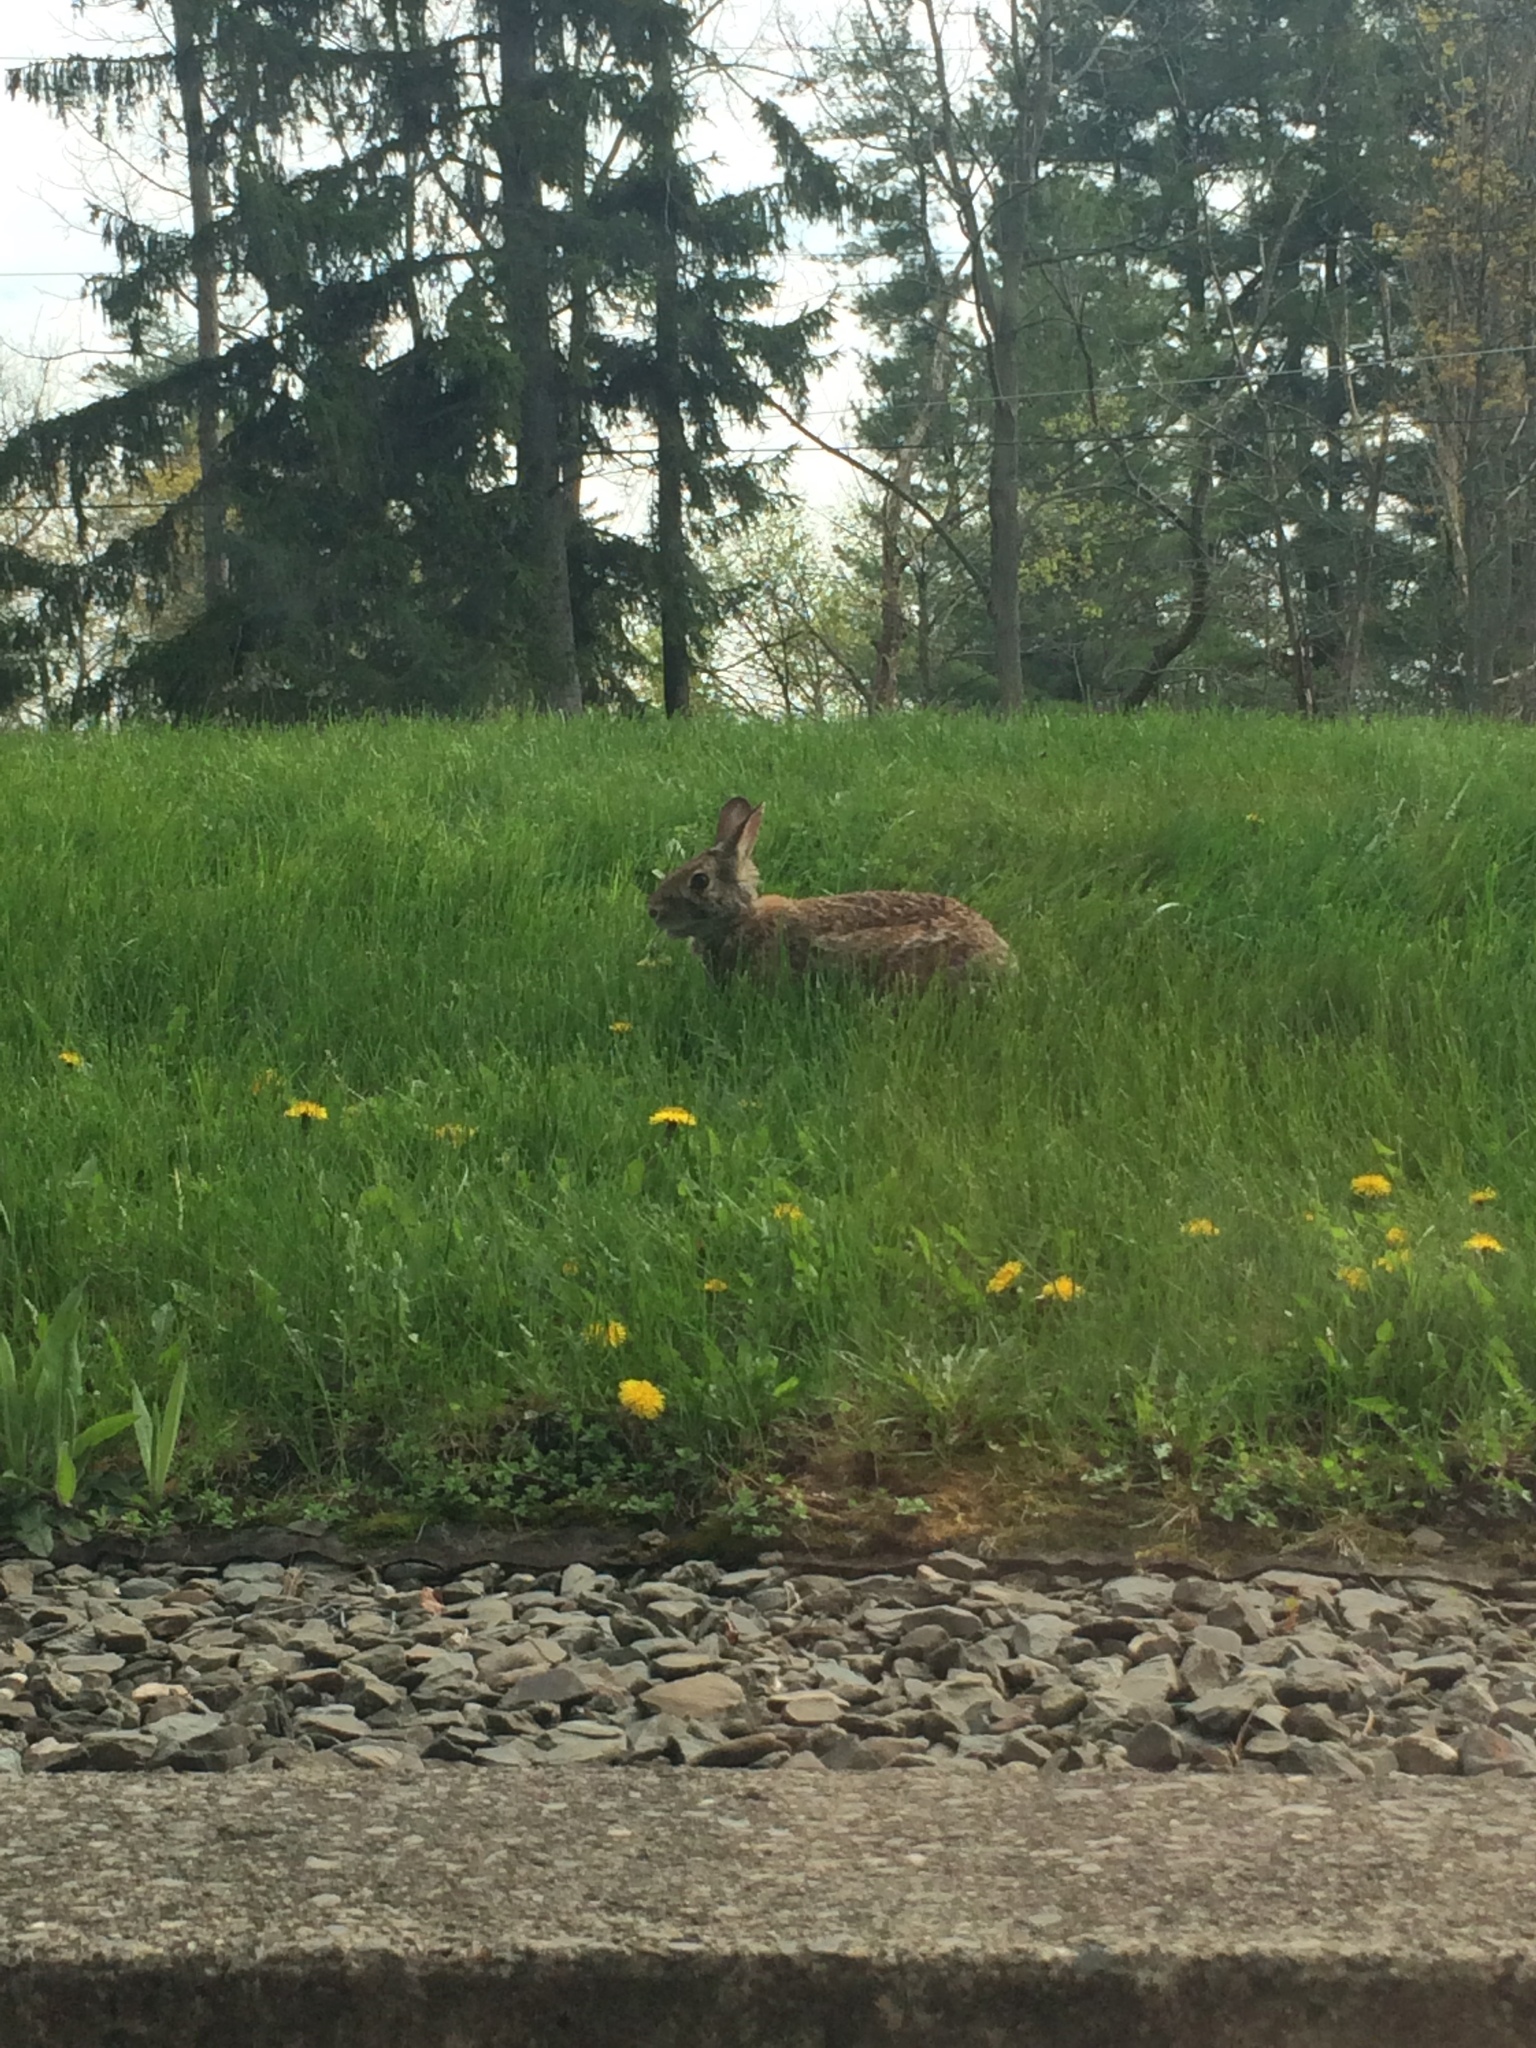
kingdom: Animalia
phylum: Chordata
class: Mammalia
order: Lagomorpha
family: Leporidae
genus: Sylvilagus
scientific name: Sylvilagus floridanus
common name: Eastern cottontail
